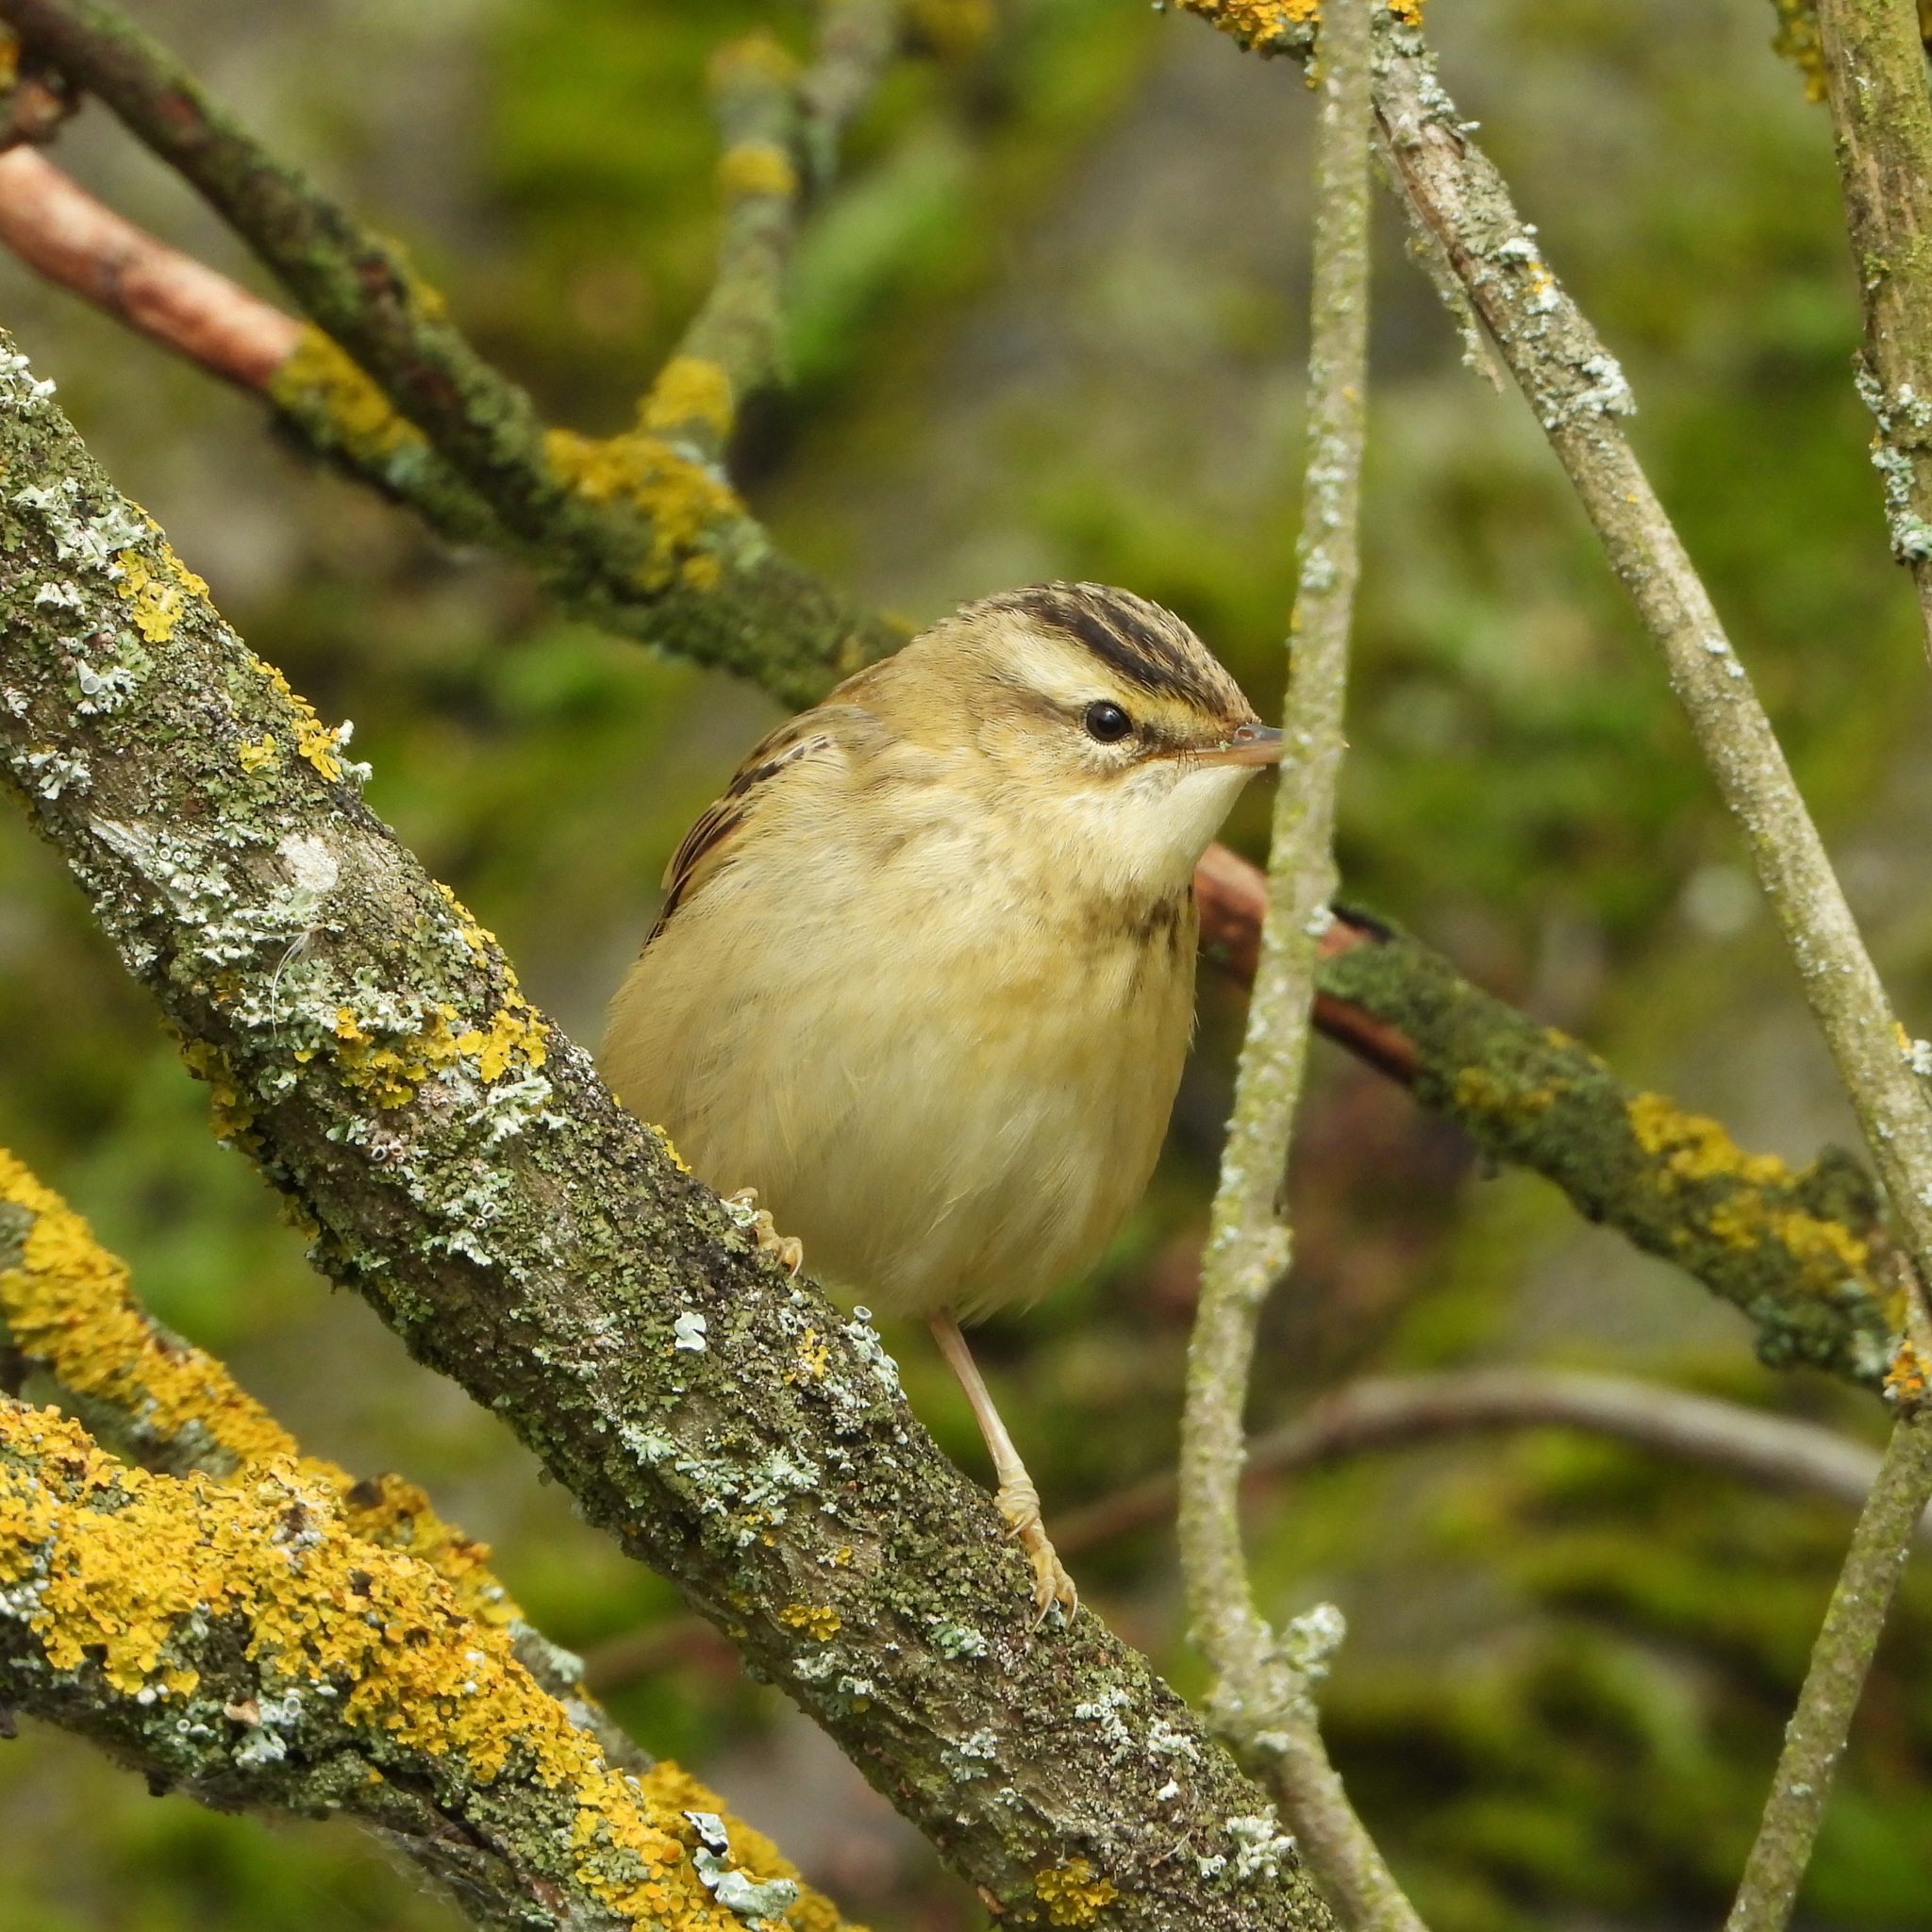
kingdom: Animalia
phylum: Chordata
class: Aves
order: Passeriformes
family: Acrocephalidae
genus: Acrocephalus
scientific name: Acrocephalus schoenobaenus
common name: Sedge warbler
